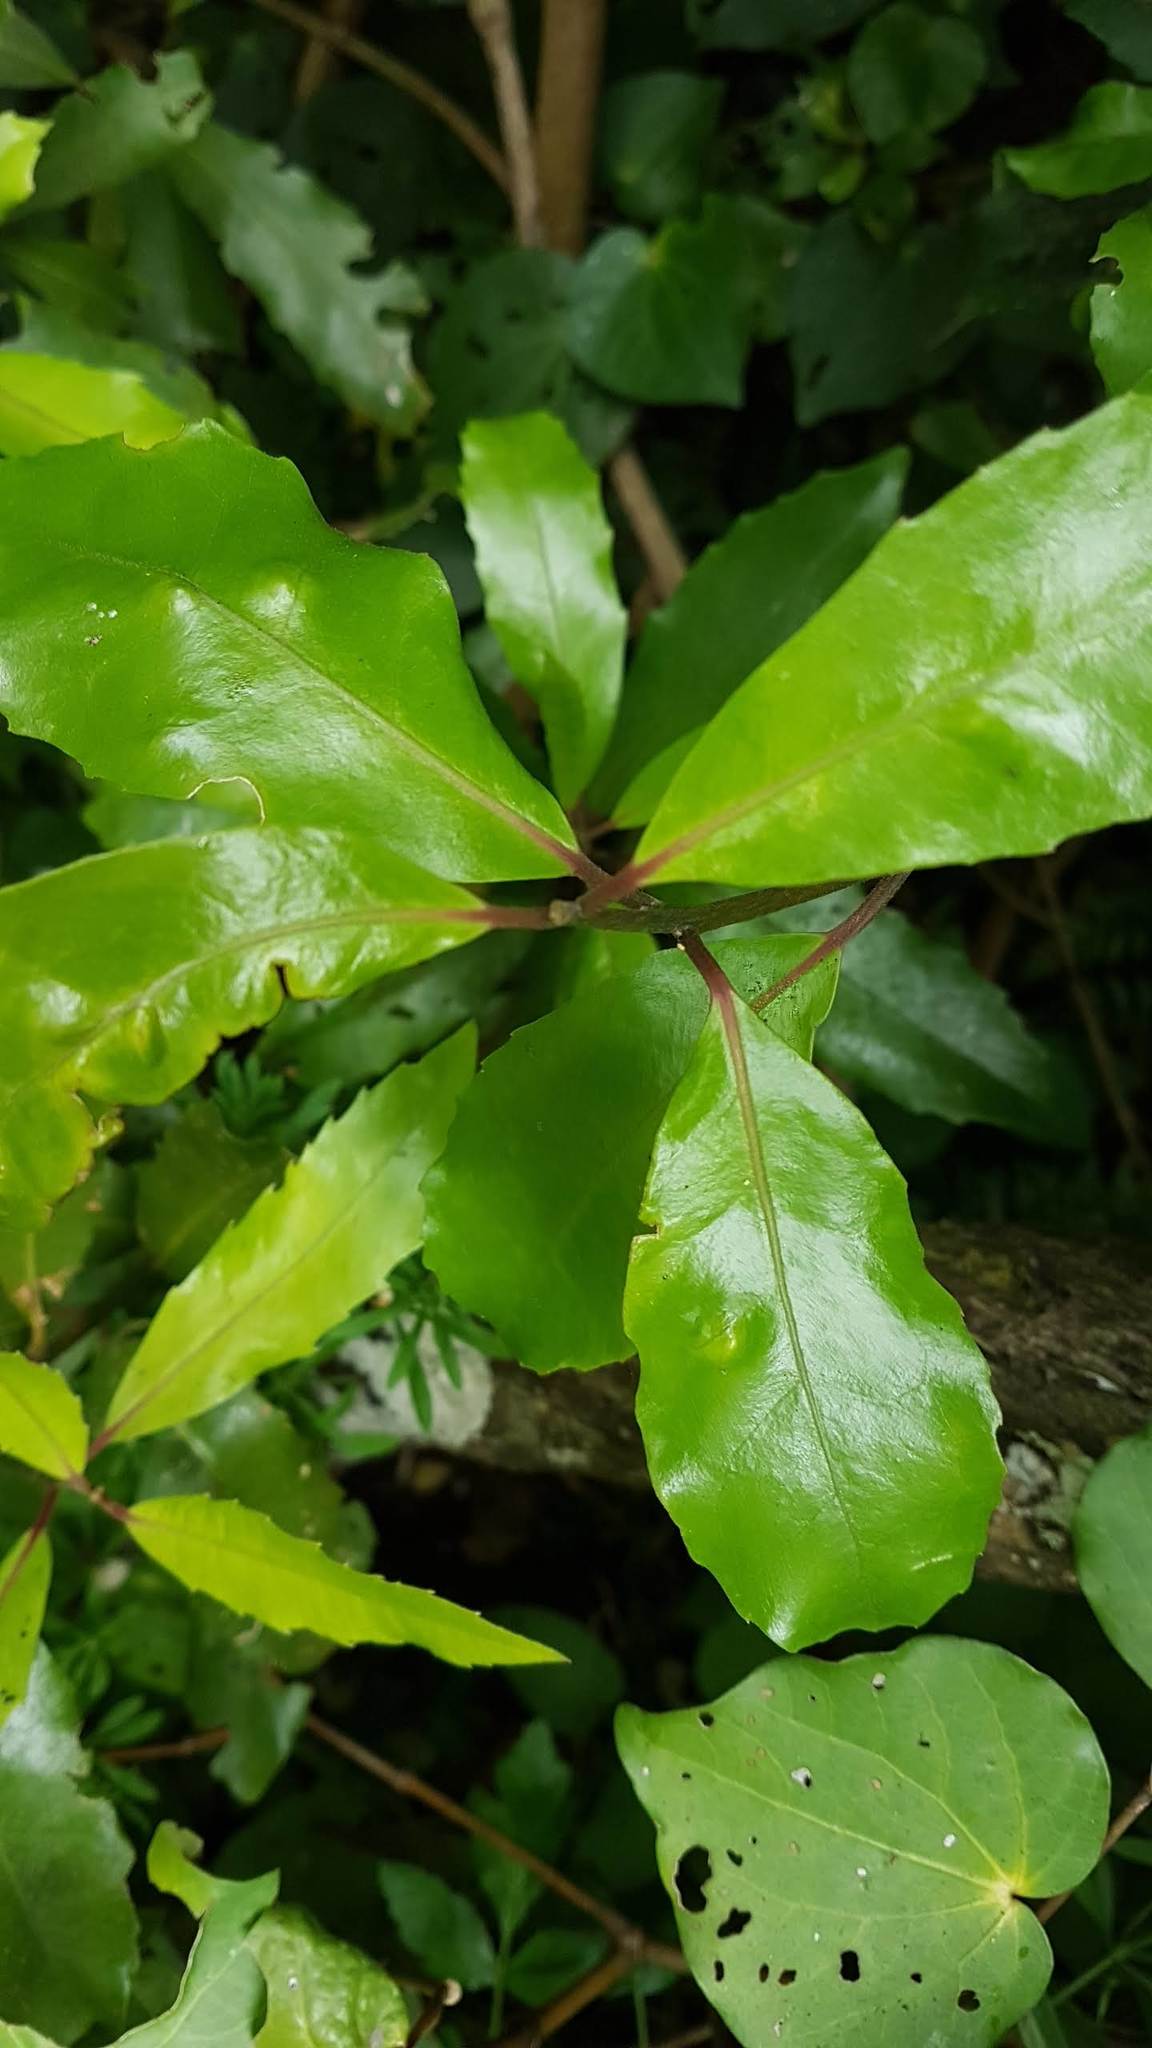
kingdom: Plantae
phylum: Tracheophyta
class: Magnoliopsida
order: Laurales
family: Monimiaceae
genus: Hedycarya
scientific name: Hedycarya arborea
